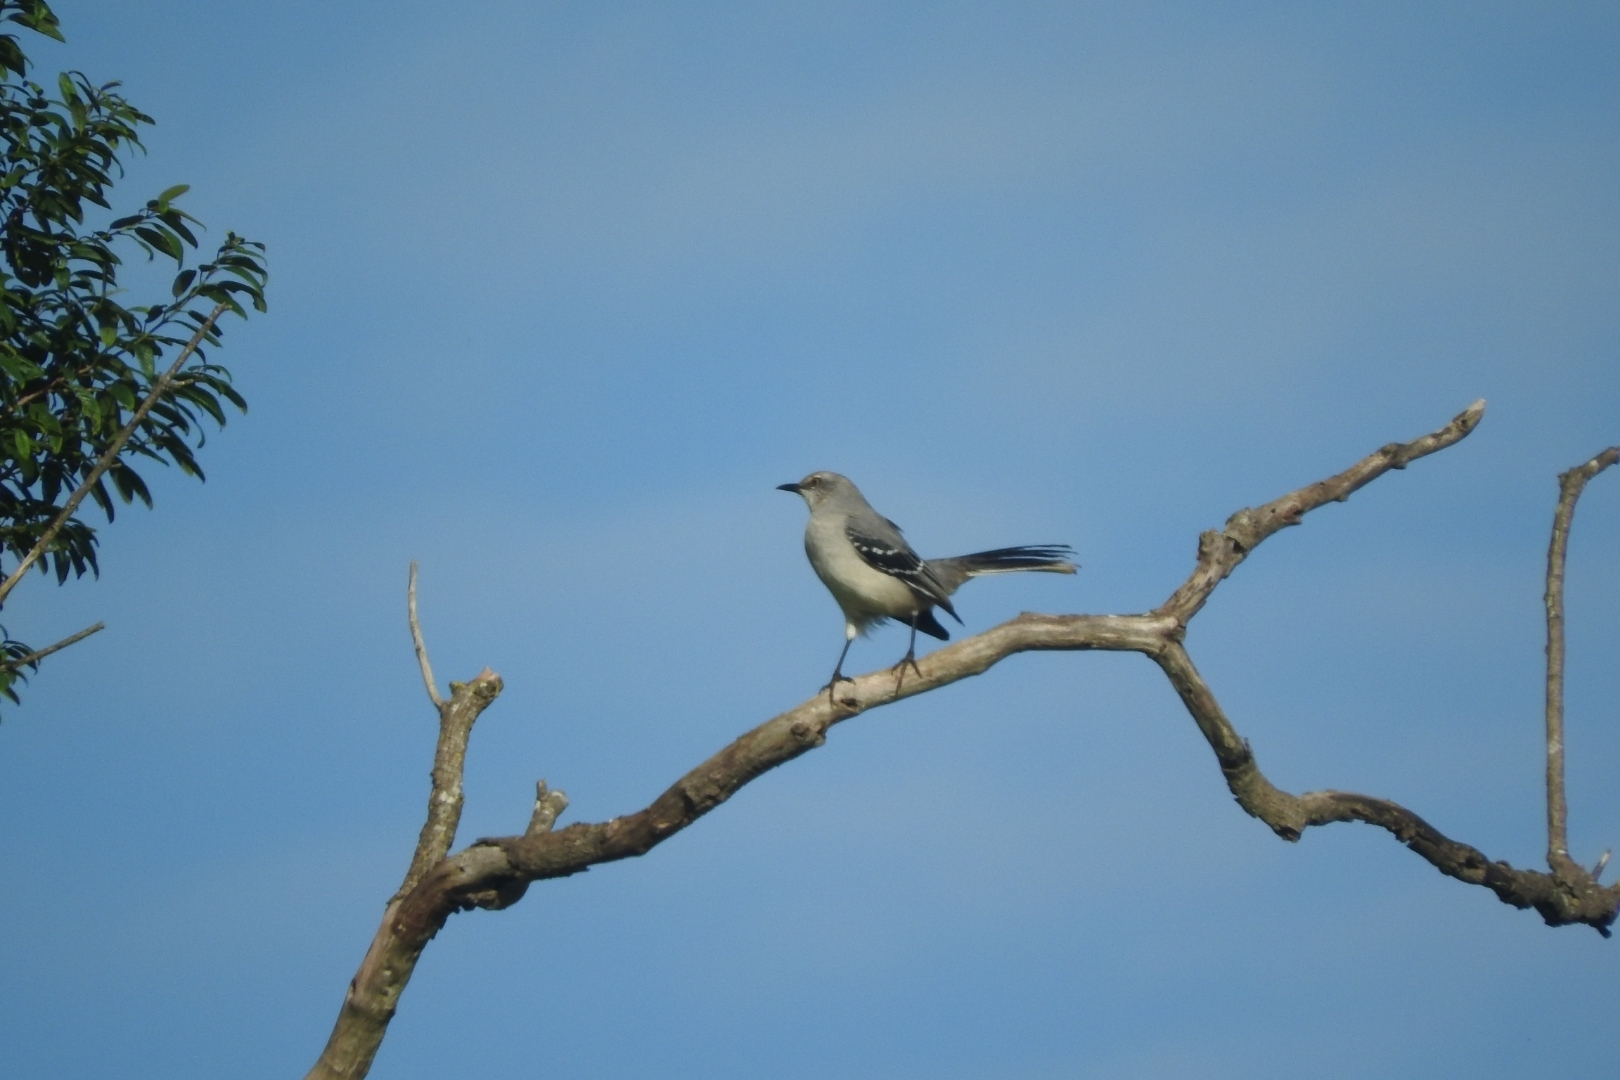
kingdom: Animalia
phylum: Chordata
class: Aves
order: Passeriformes
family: Mimidae
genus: Mimus
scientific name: Mimus gilvus
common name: Tropical mockingbird
